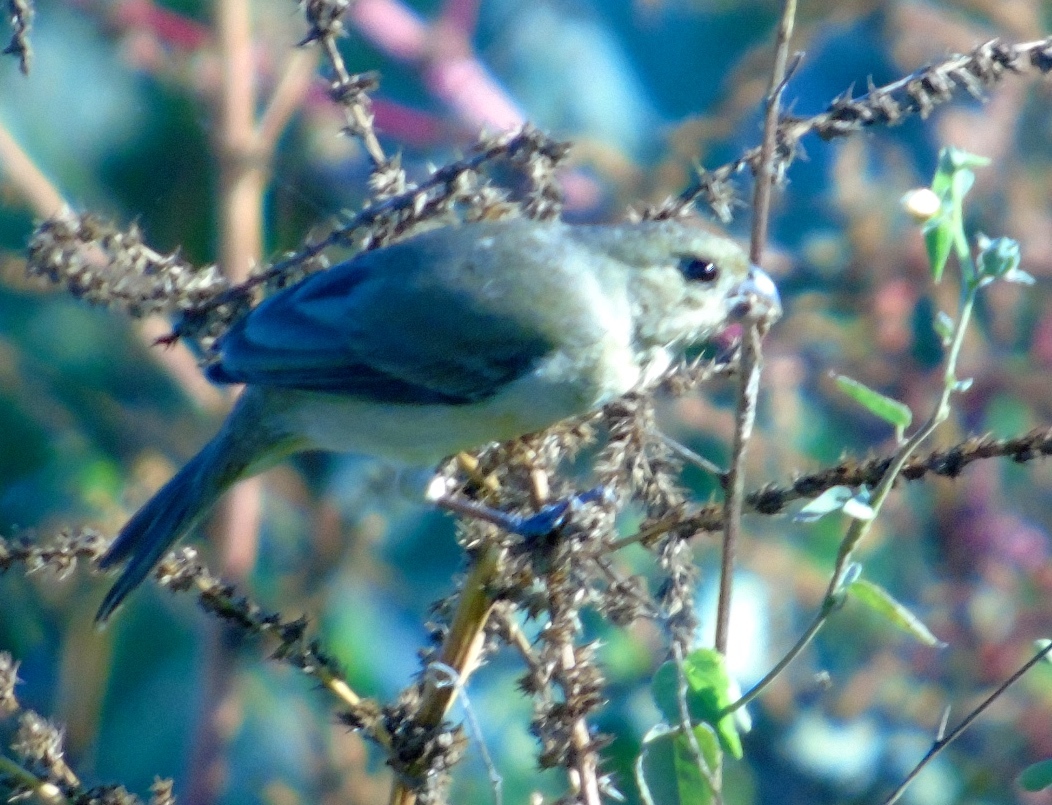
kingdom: Animalia
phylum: Chordata
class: Aves
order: Passeriformes
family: Thraupidae
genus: Sporophila
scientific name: Sporophila torqueola
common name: White-collared seedeater
